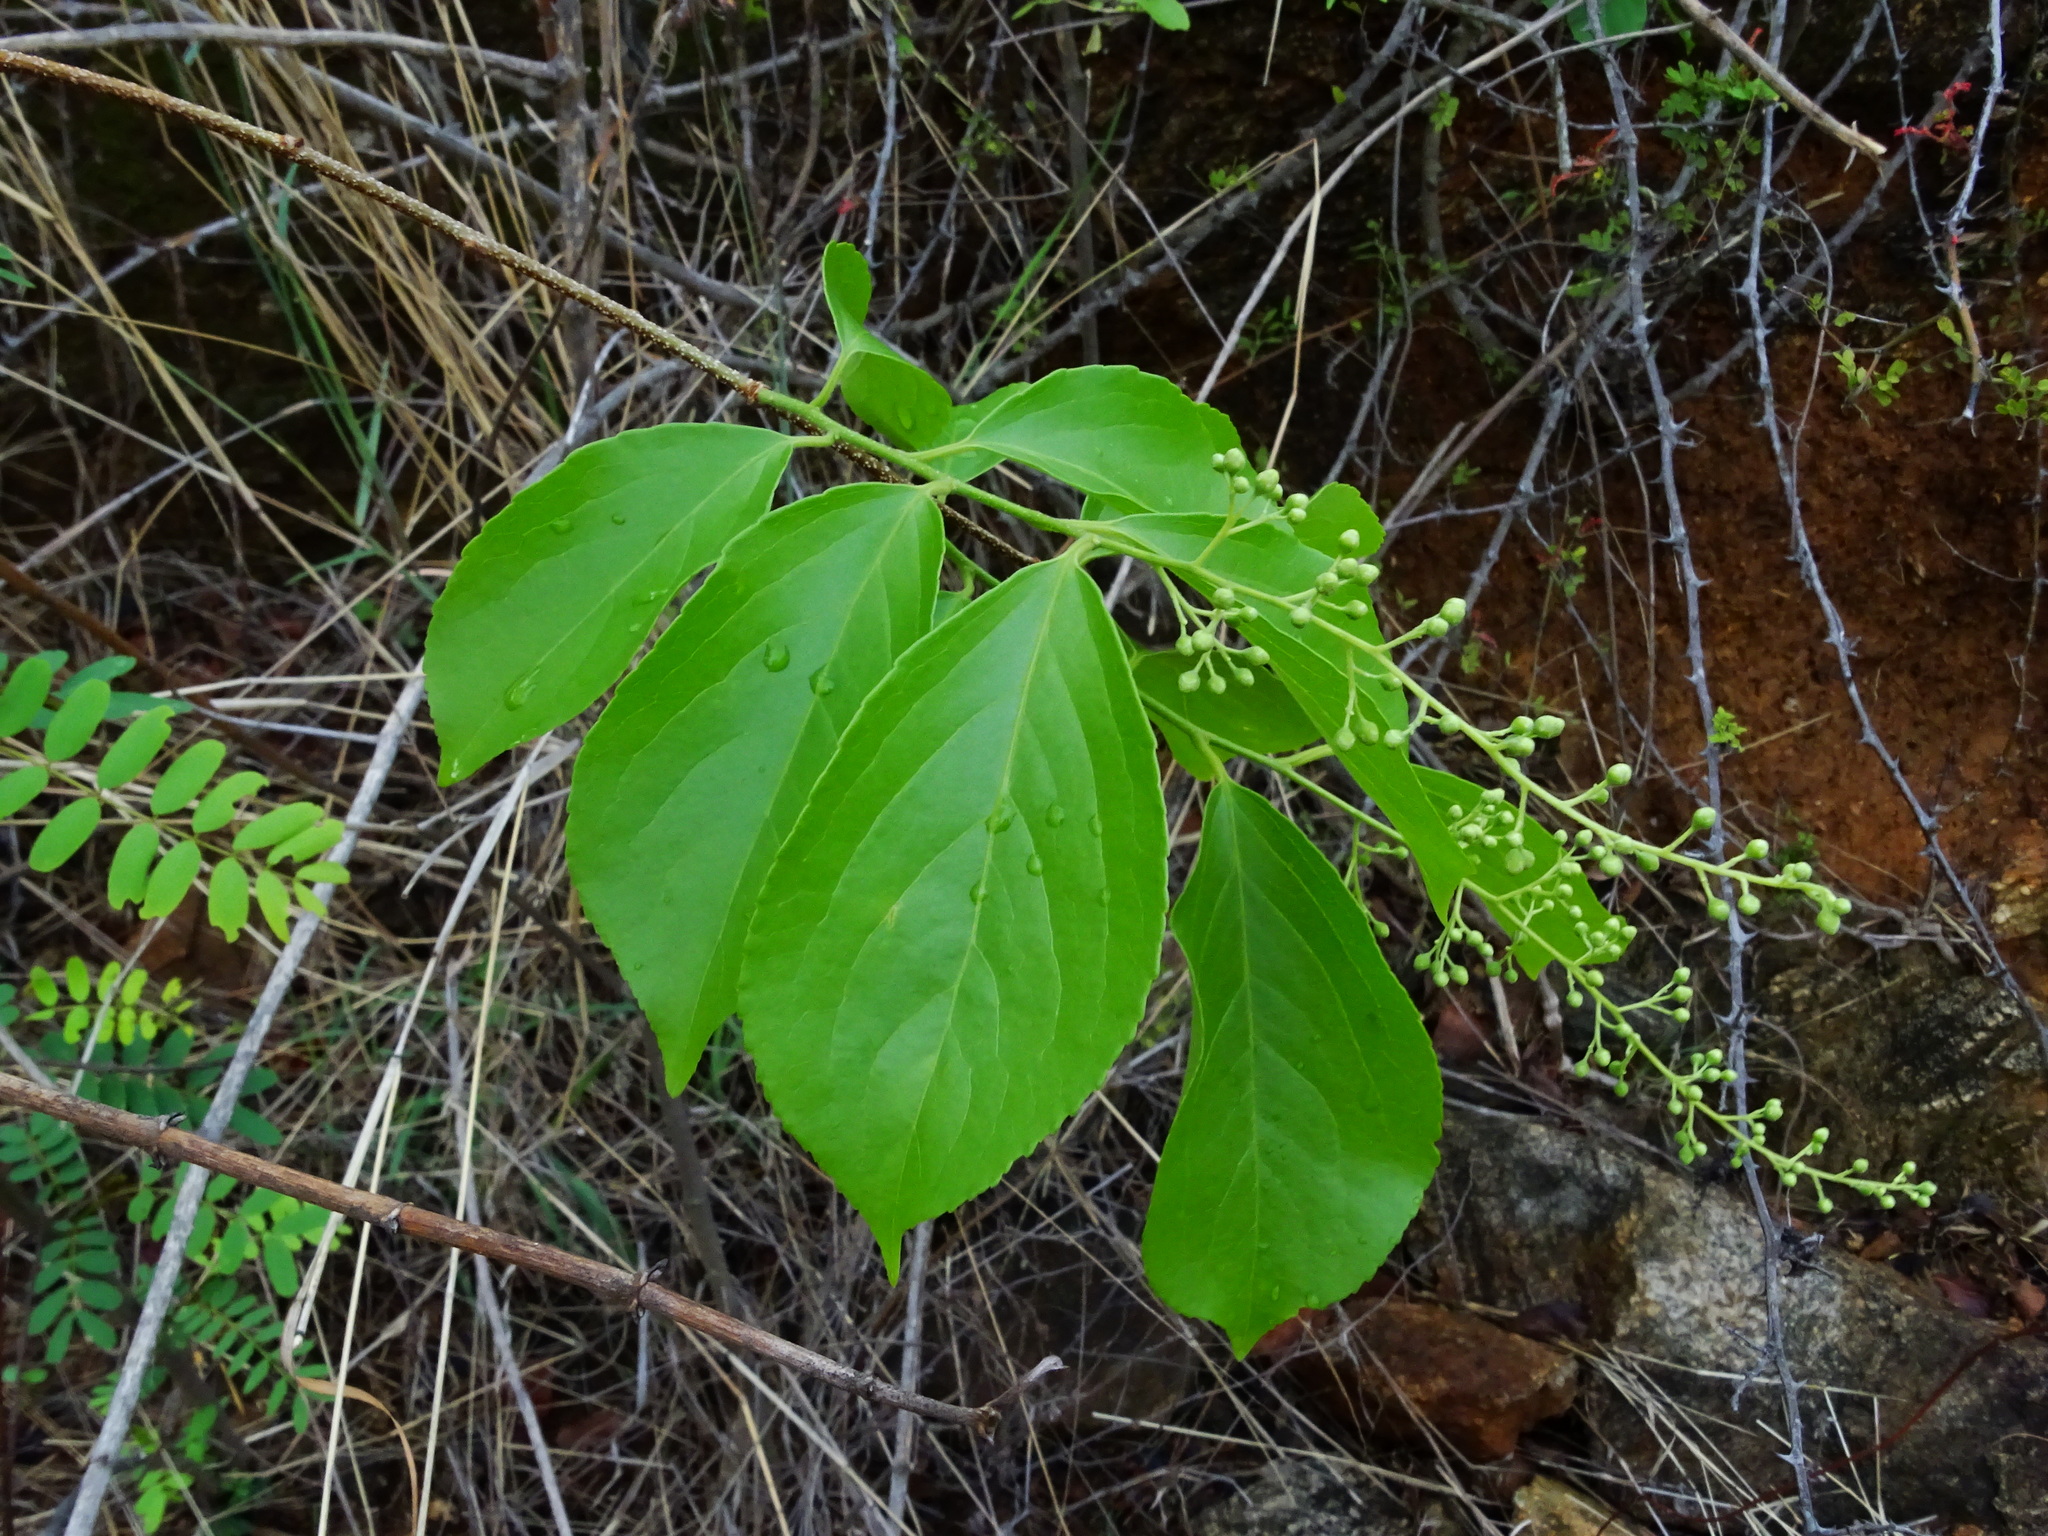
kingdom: Plantae
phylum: Tracheophyta
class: Magnoliopsida
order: Celastrales
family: Celastraceae
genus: Celastrus
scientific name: Celastrus paniculatus
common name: Oriental bittersweet; staff vine
